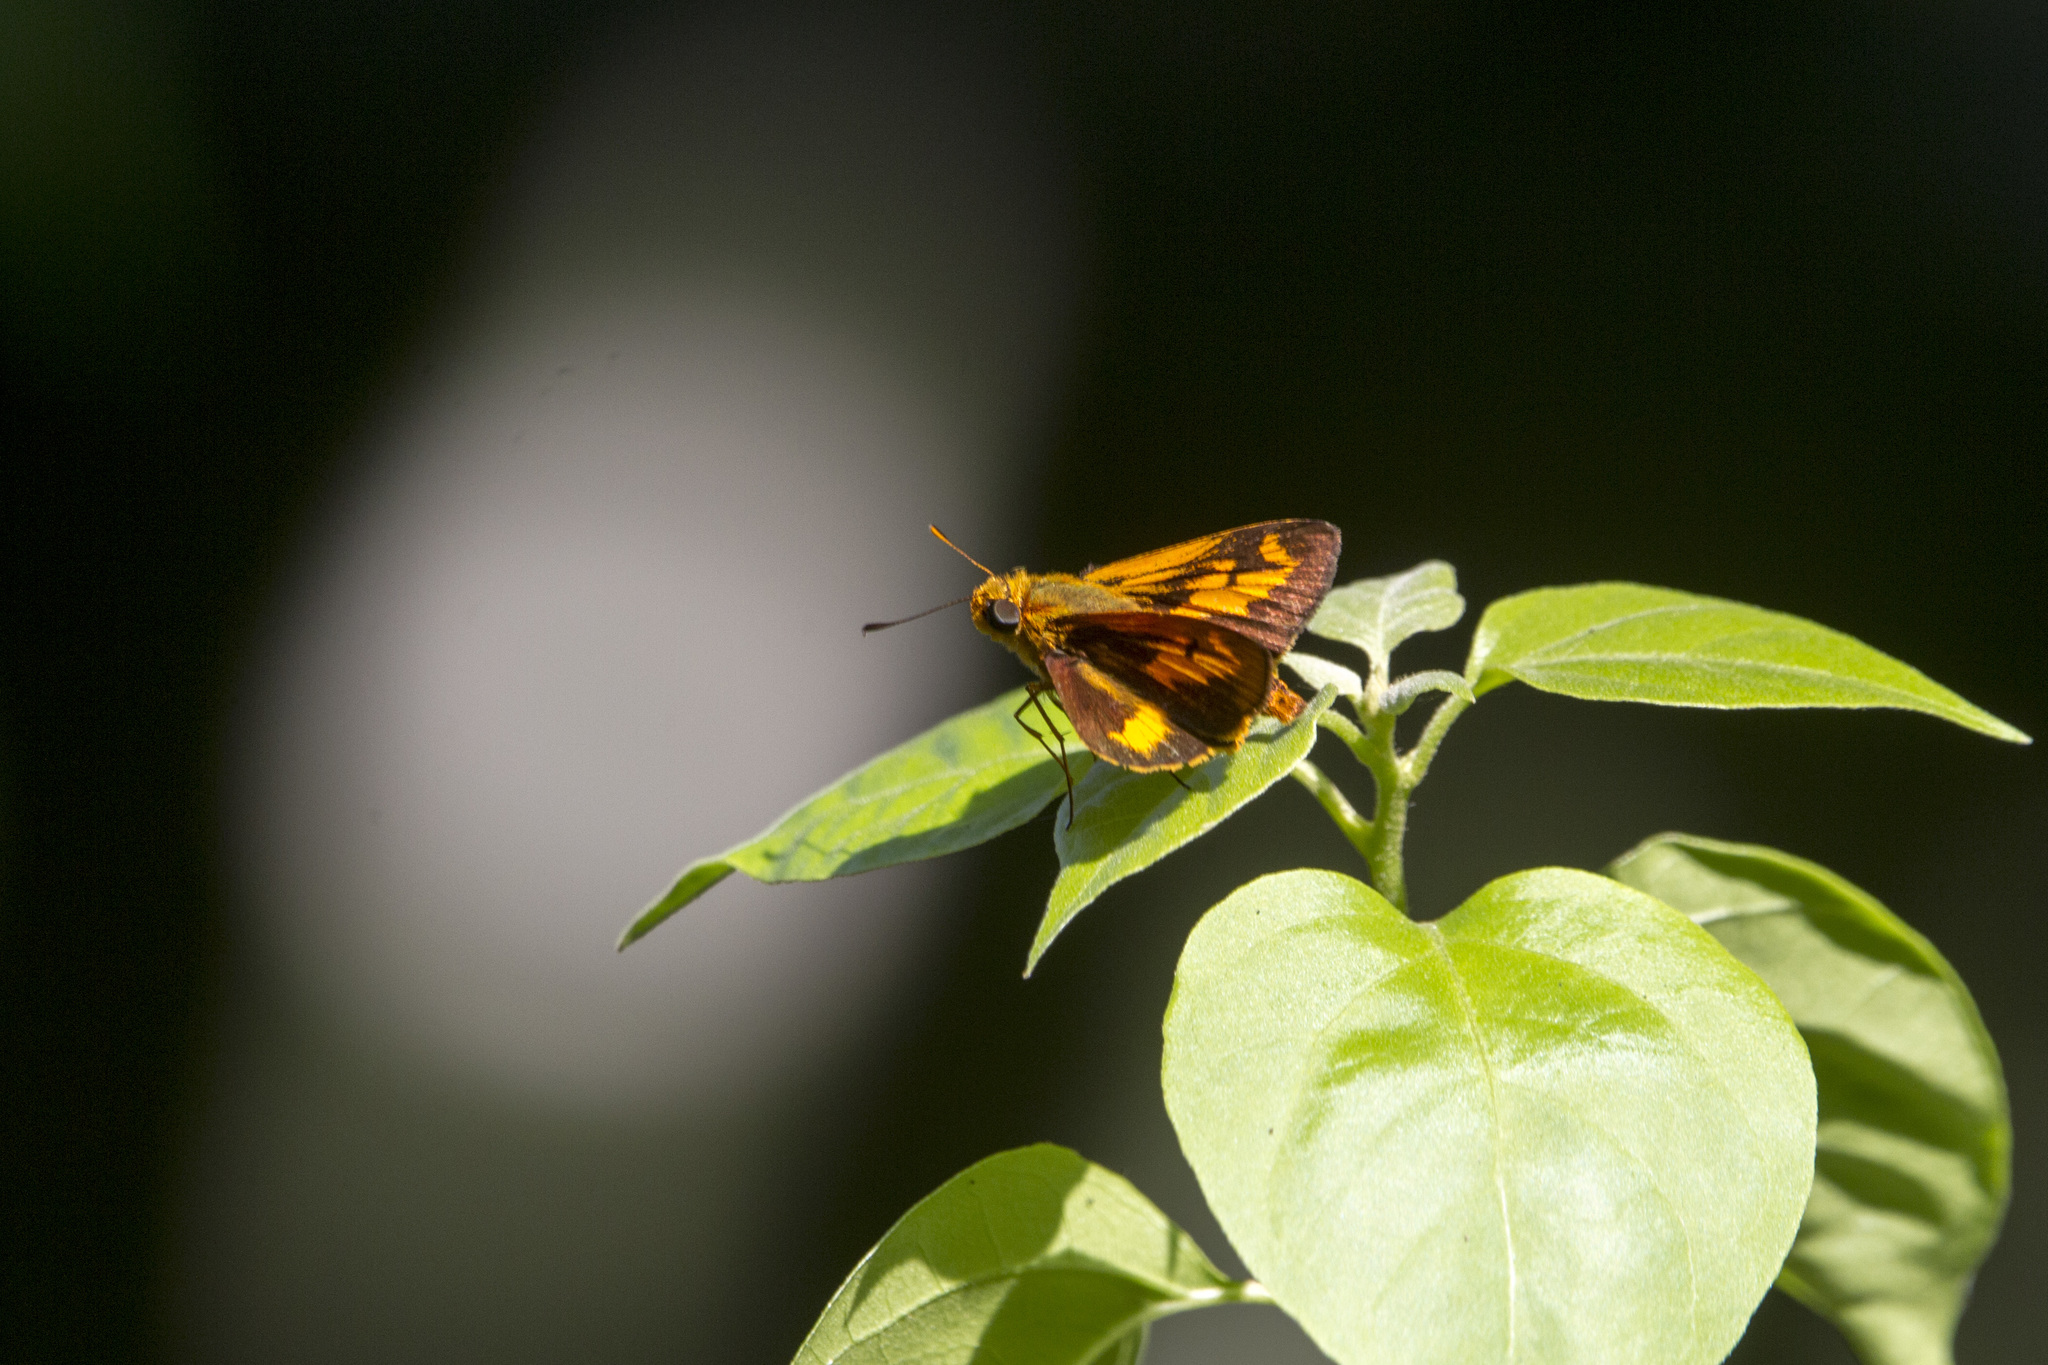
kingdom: Animalia
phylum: Arthropoda
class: Insecta
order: Lepidoptera
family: Hesperiidae
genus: Oriens
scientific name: Oriens goloides
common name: Smaller dartlet
